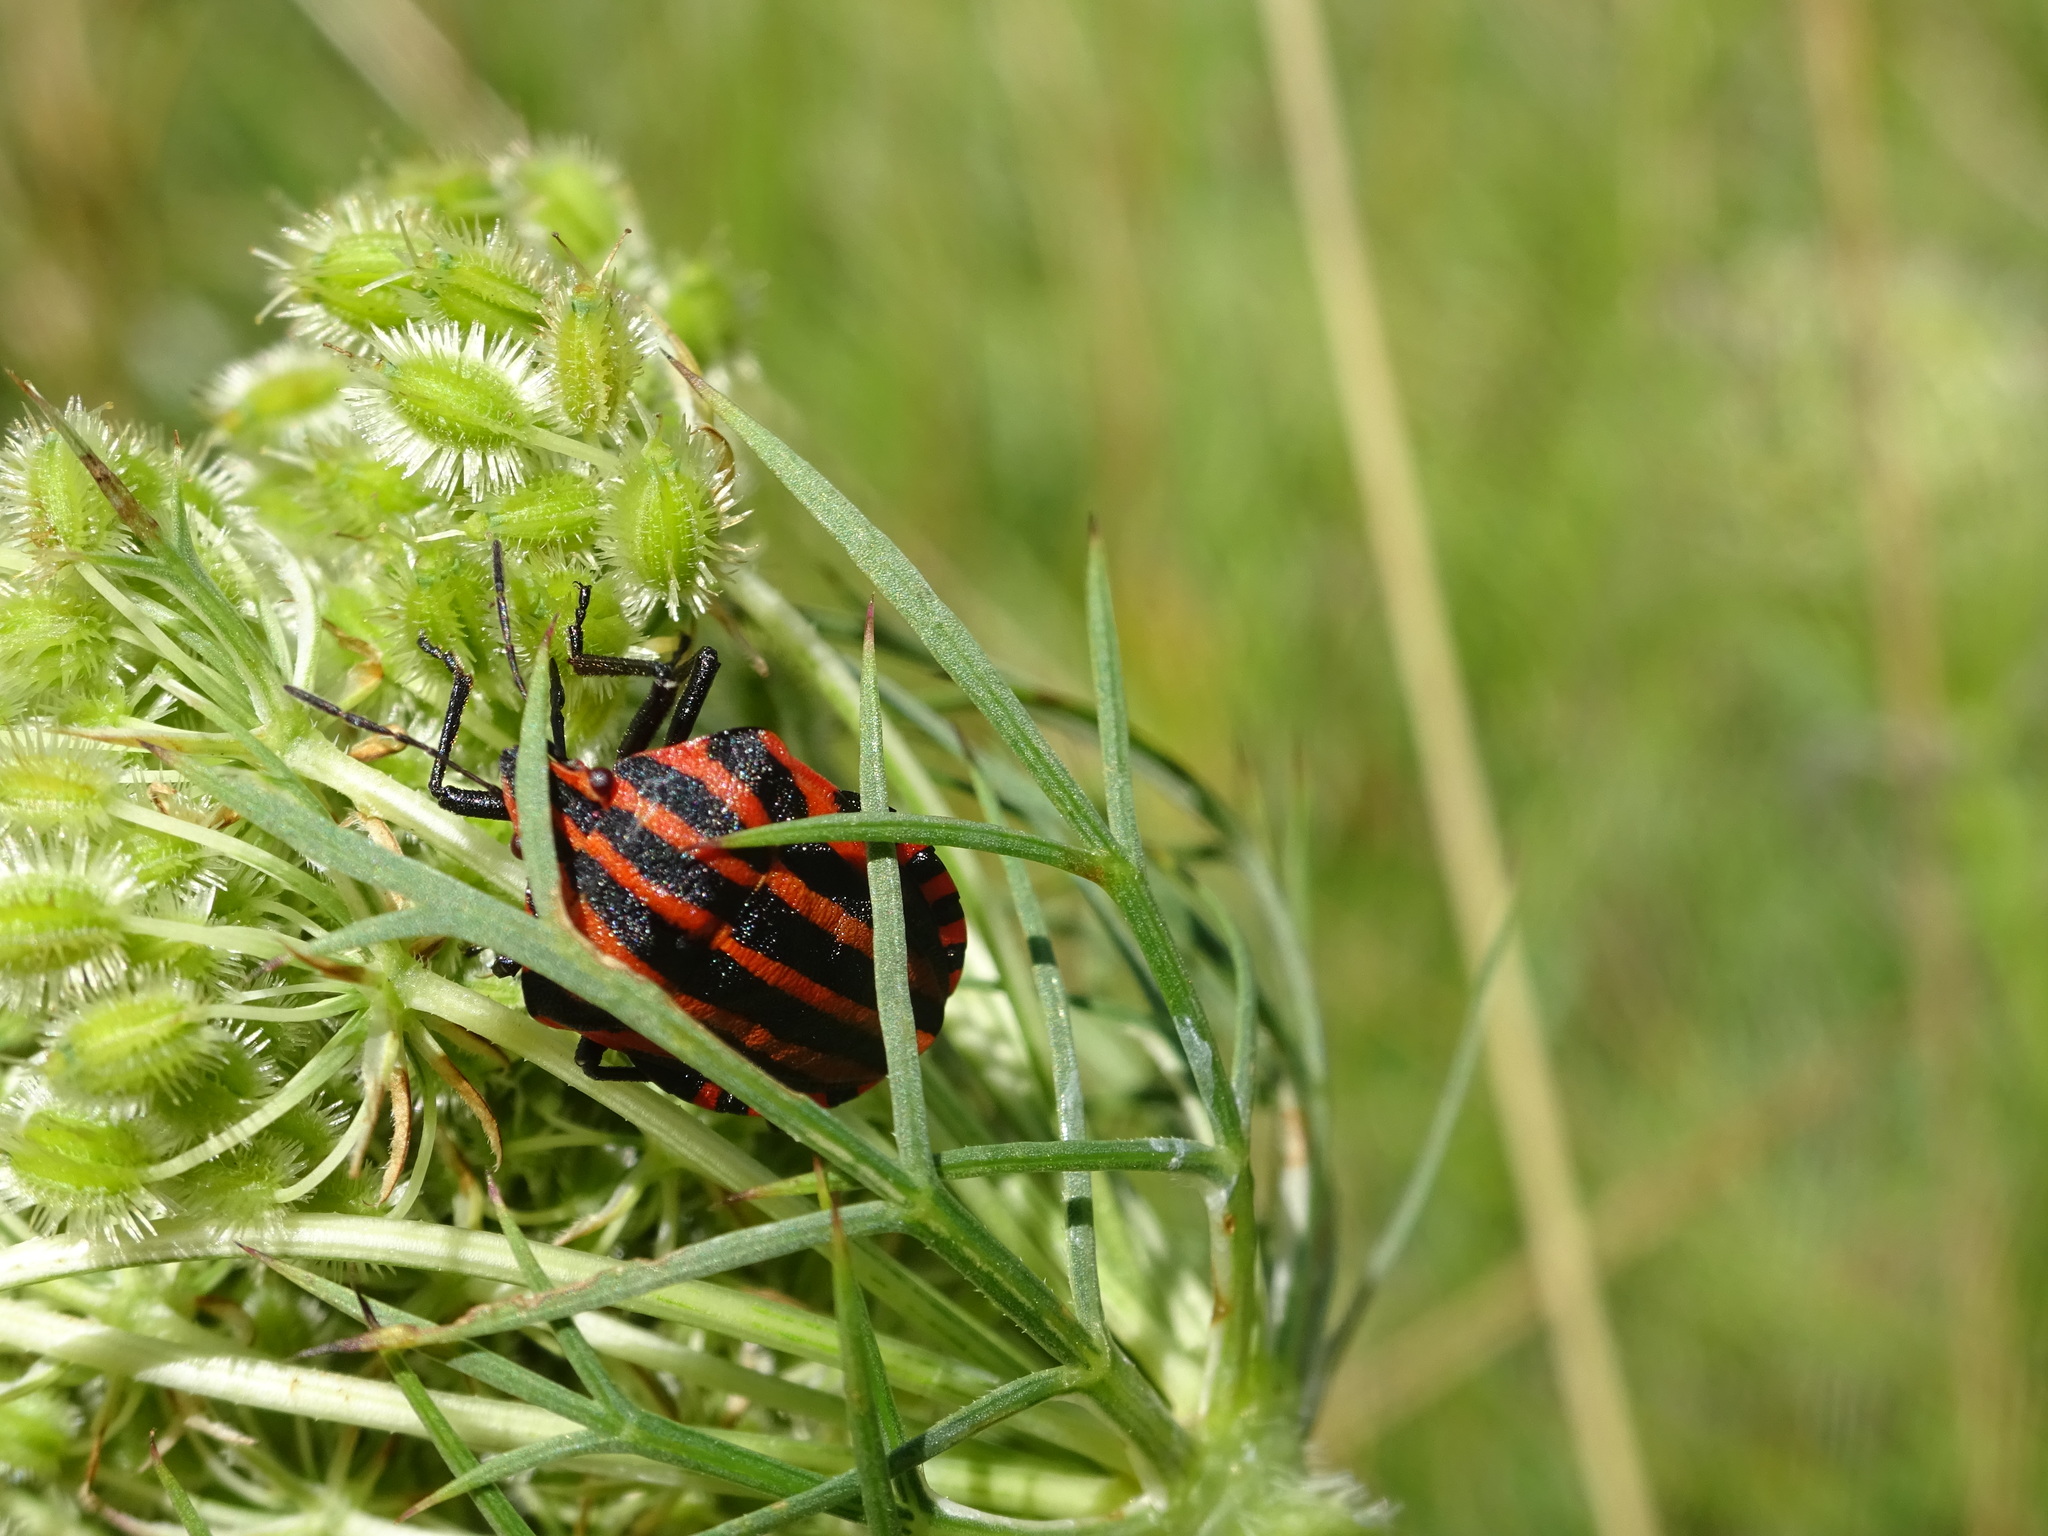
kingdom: Animalia
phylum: Arthropoda
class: Insecta
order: Hemiptera
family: Pentatomidae
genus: Graphosoma
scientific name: Graphosoma italicum
